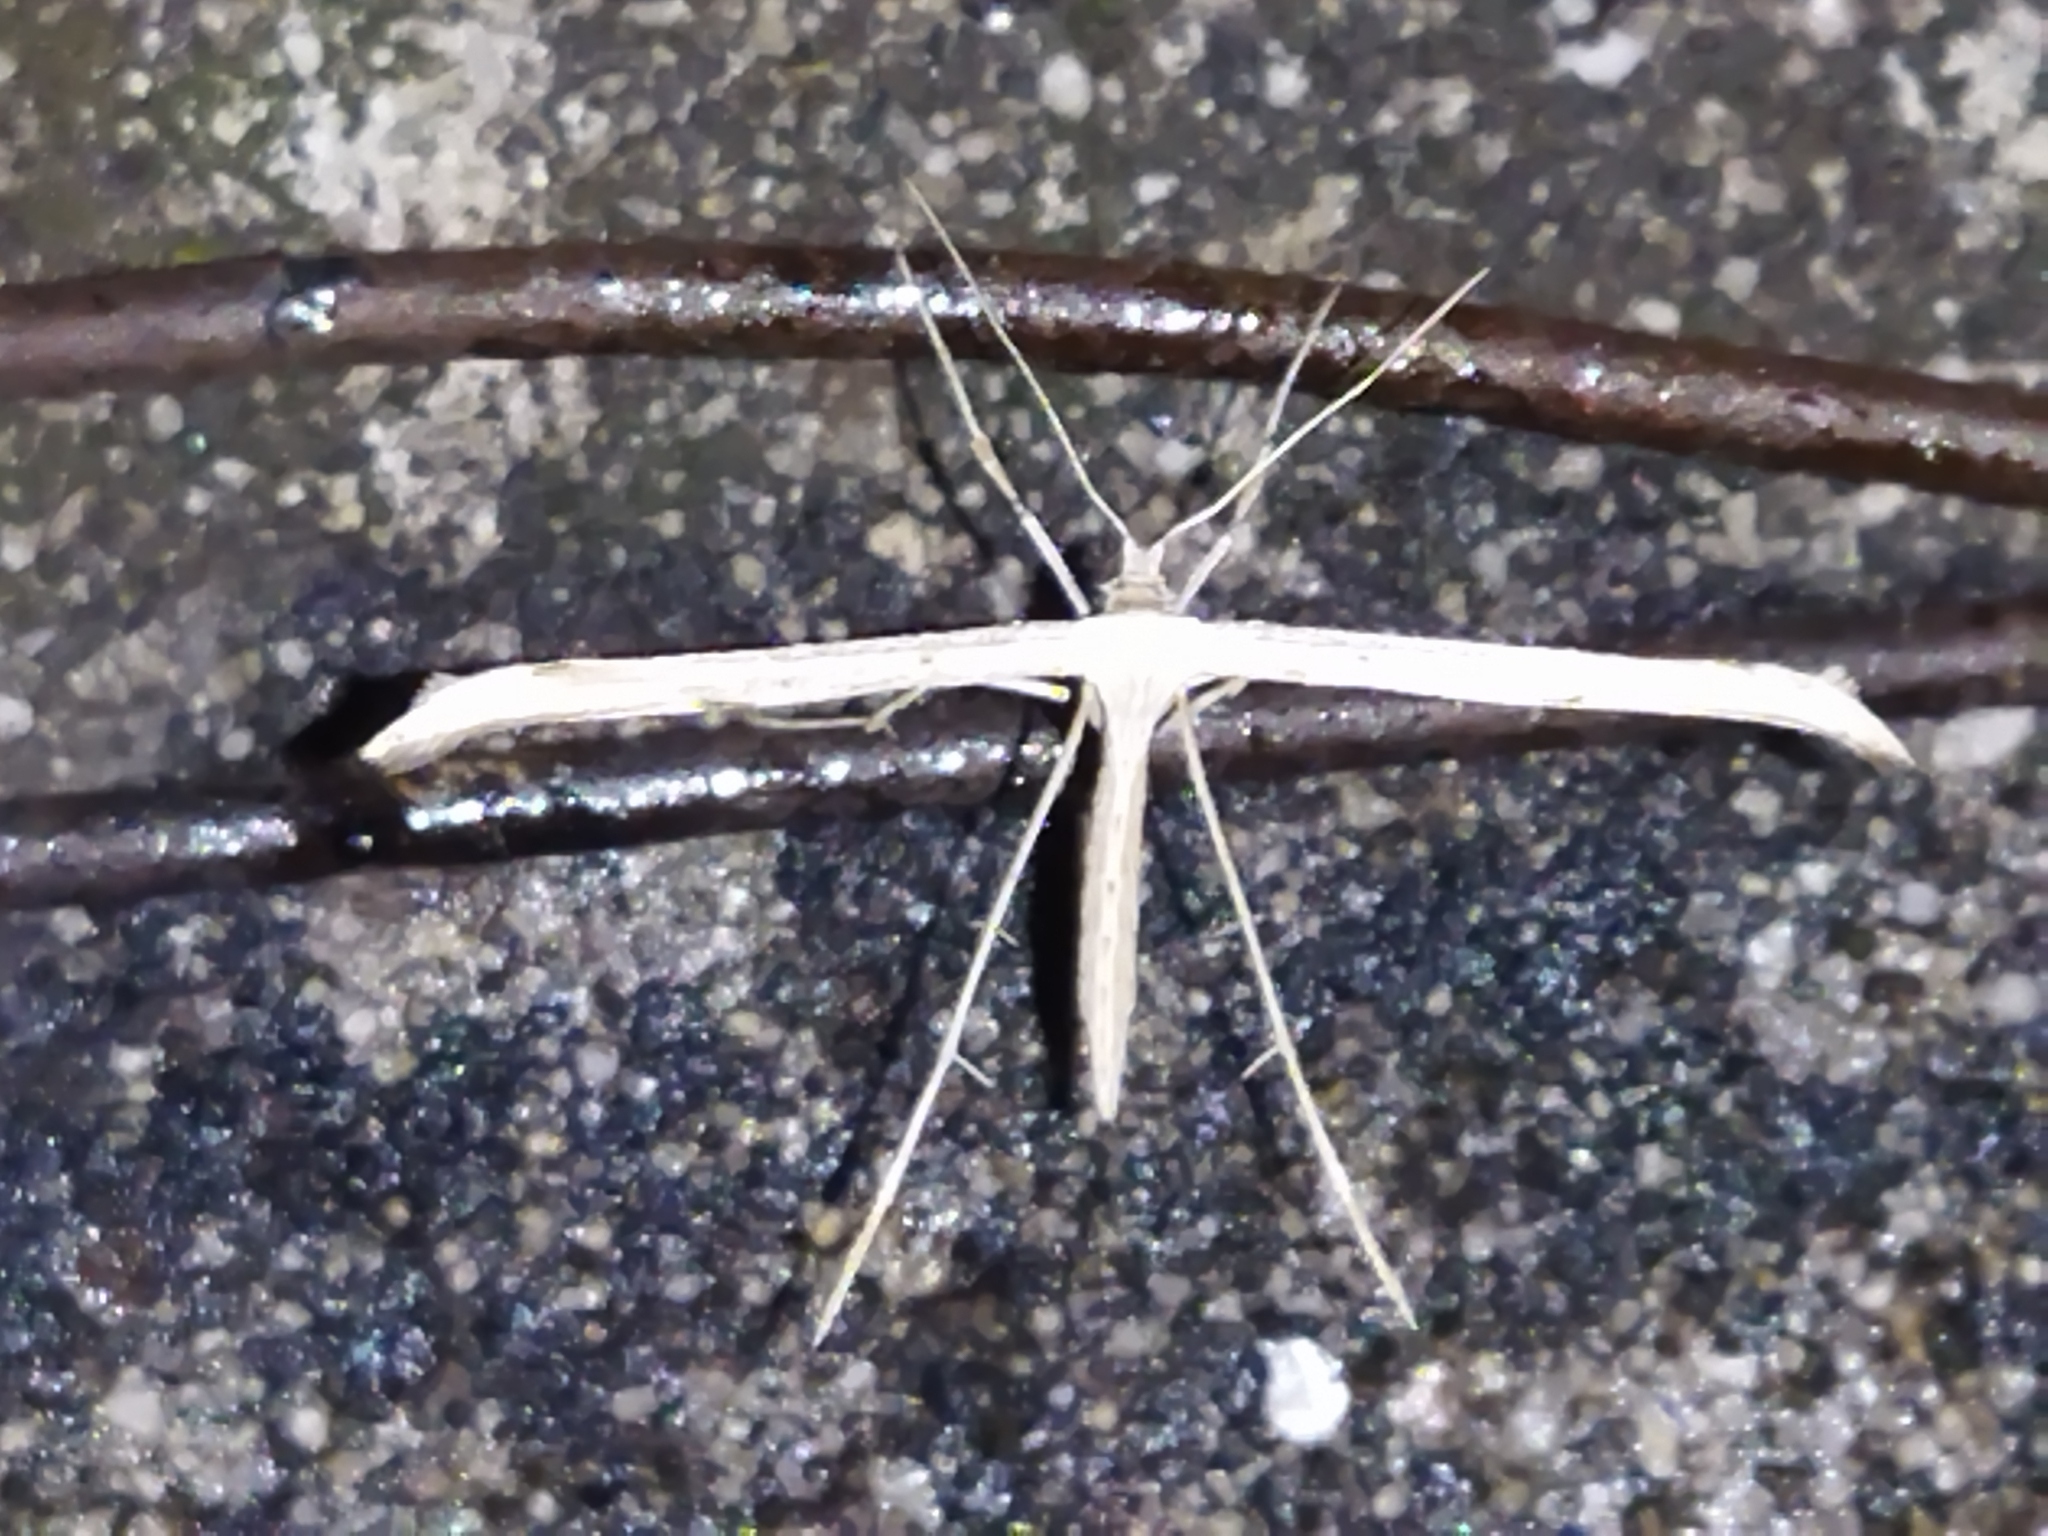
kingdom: Animalia
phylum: Arthropoda
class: Insecta
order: Lepidoptera
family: Pterophoridae
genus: Emmelina
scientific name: Emmelina monodactyla
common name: Common plume
